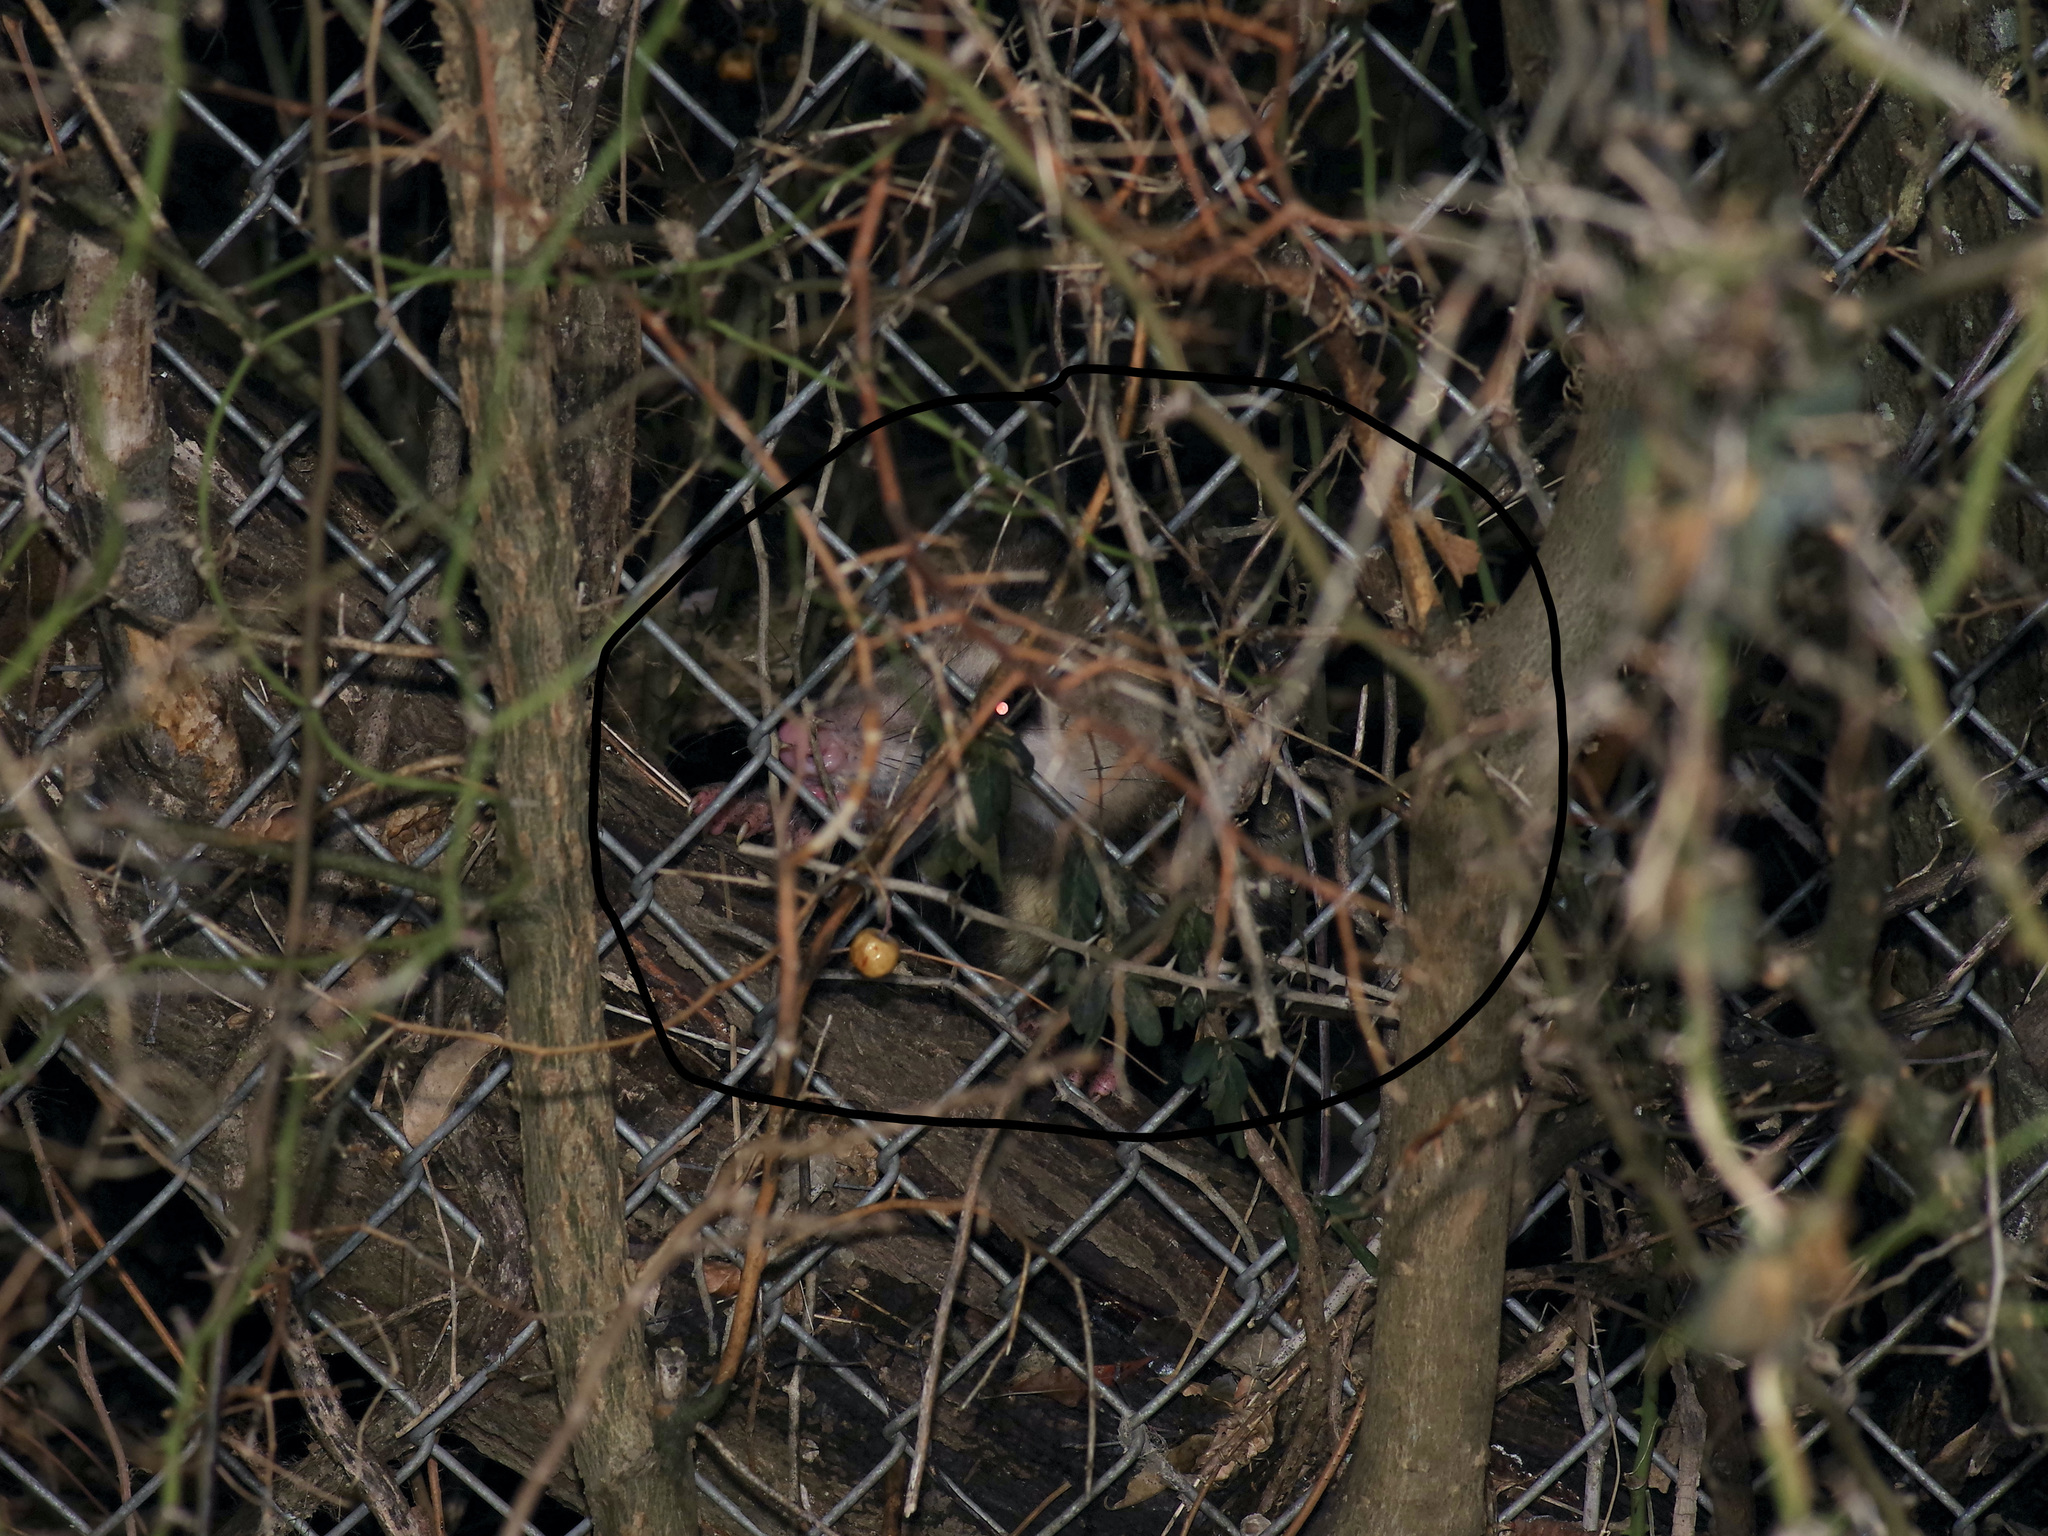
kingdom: Animalia
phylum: Chordata
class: Mammalia
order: Didelphimorphia
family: Didelphidae
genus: Didelphis
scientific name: Didelphis virginiana
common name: Virginia opossum
